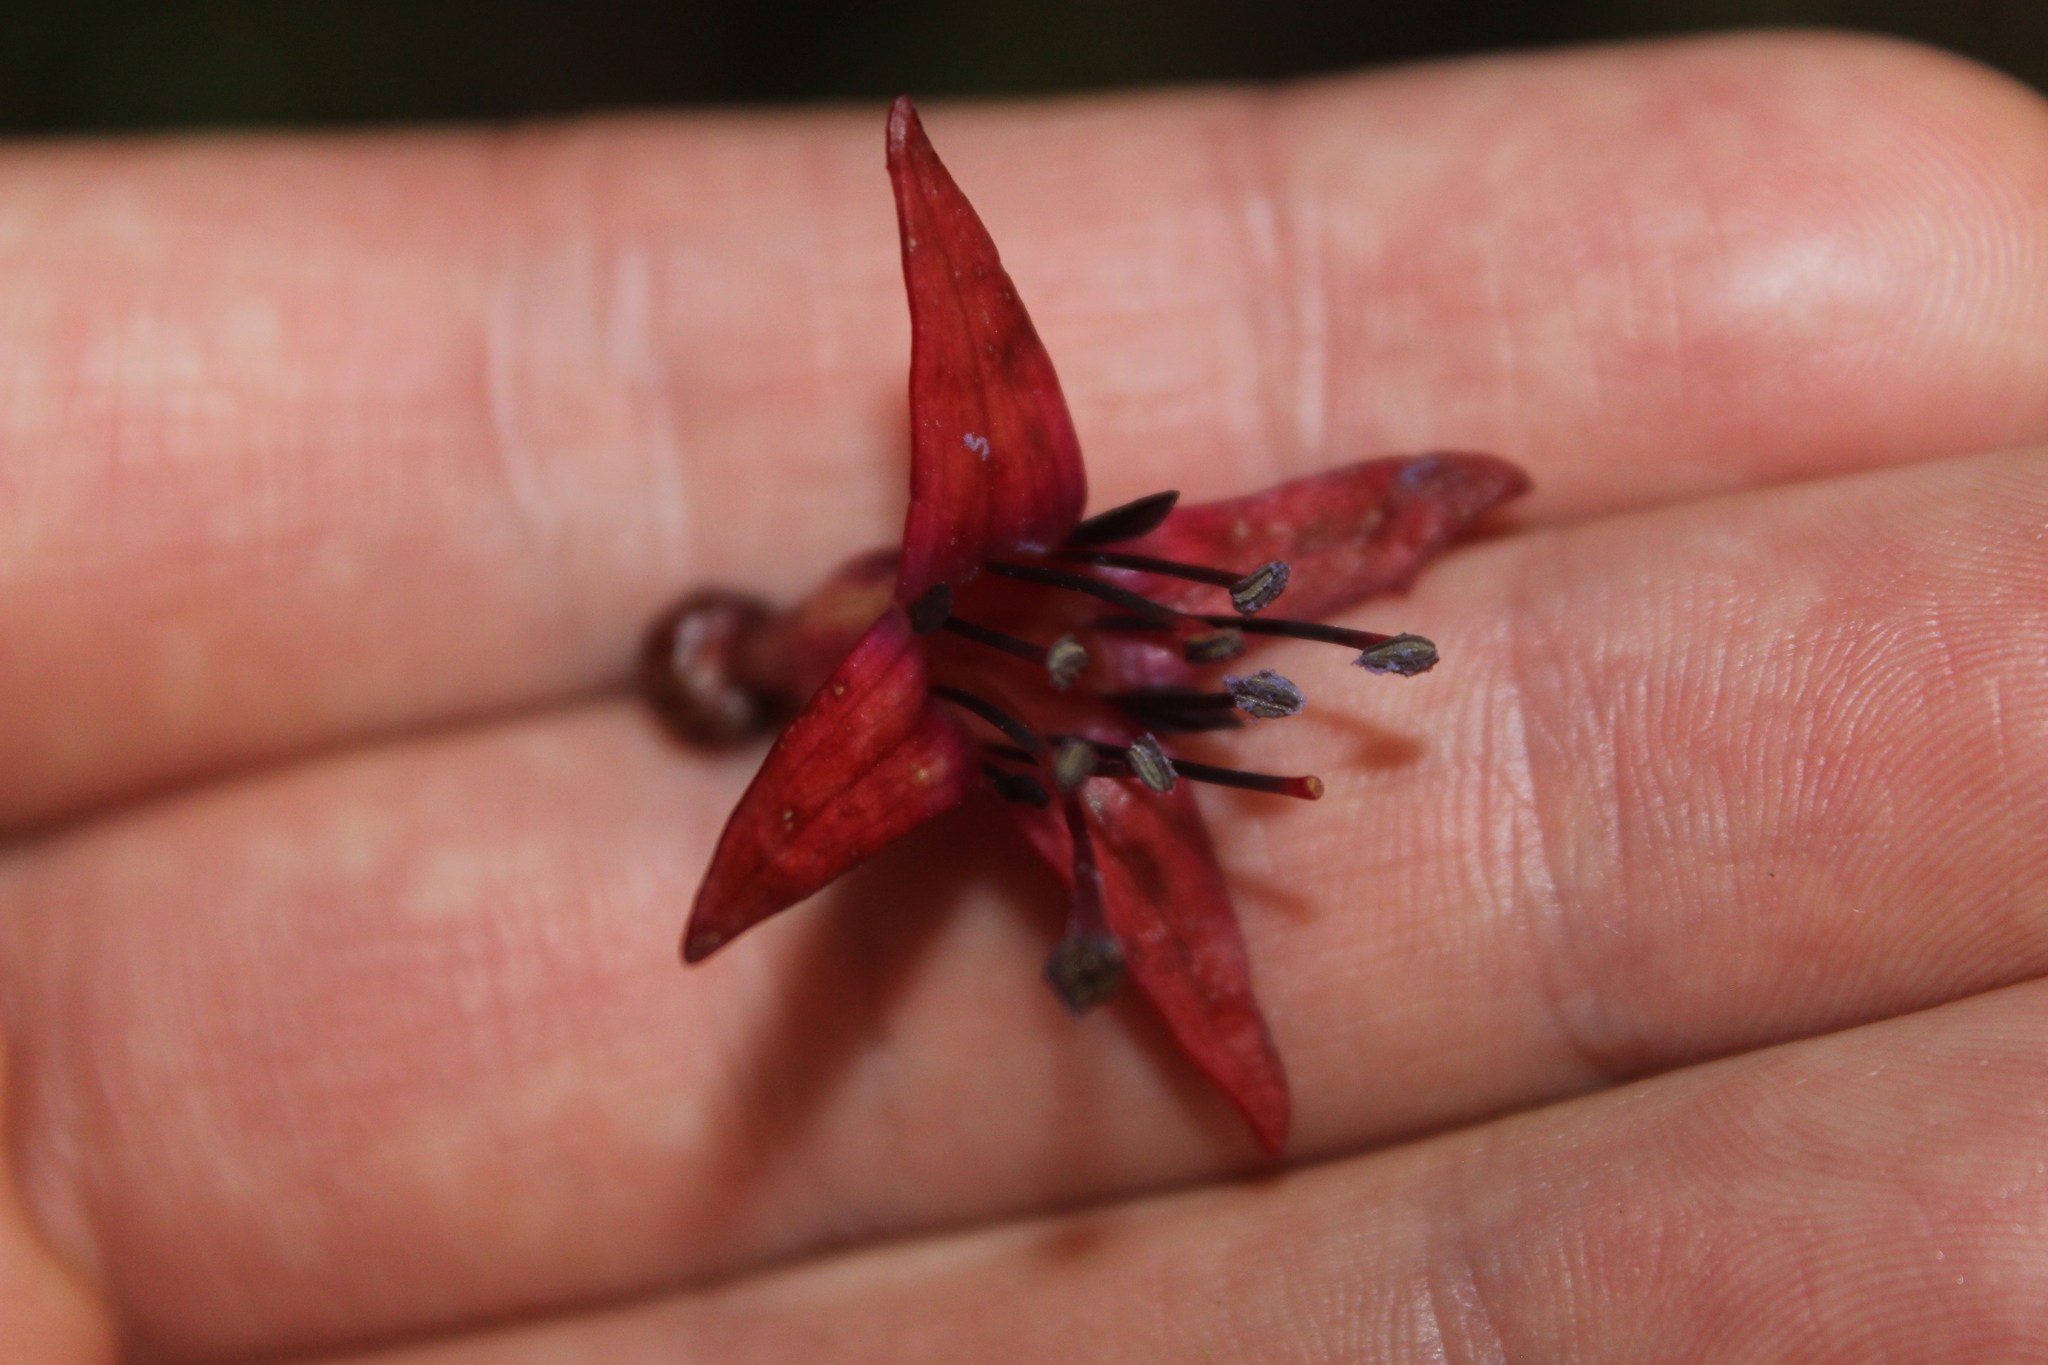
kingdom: Plantae
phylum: Tracheophyta
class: Magnoliopsida
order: Myrtales
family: Onagraceae
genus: Fuchsia
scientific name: Fuchsia excorticata
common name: Tree fuchsia
